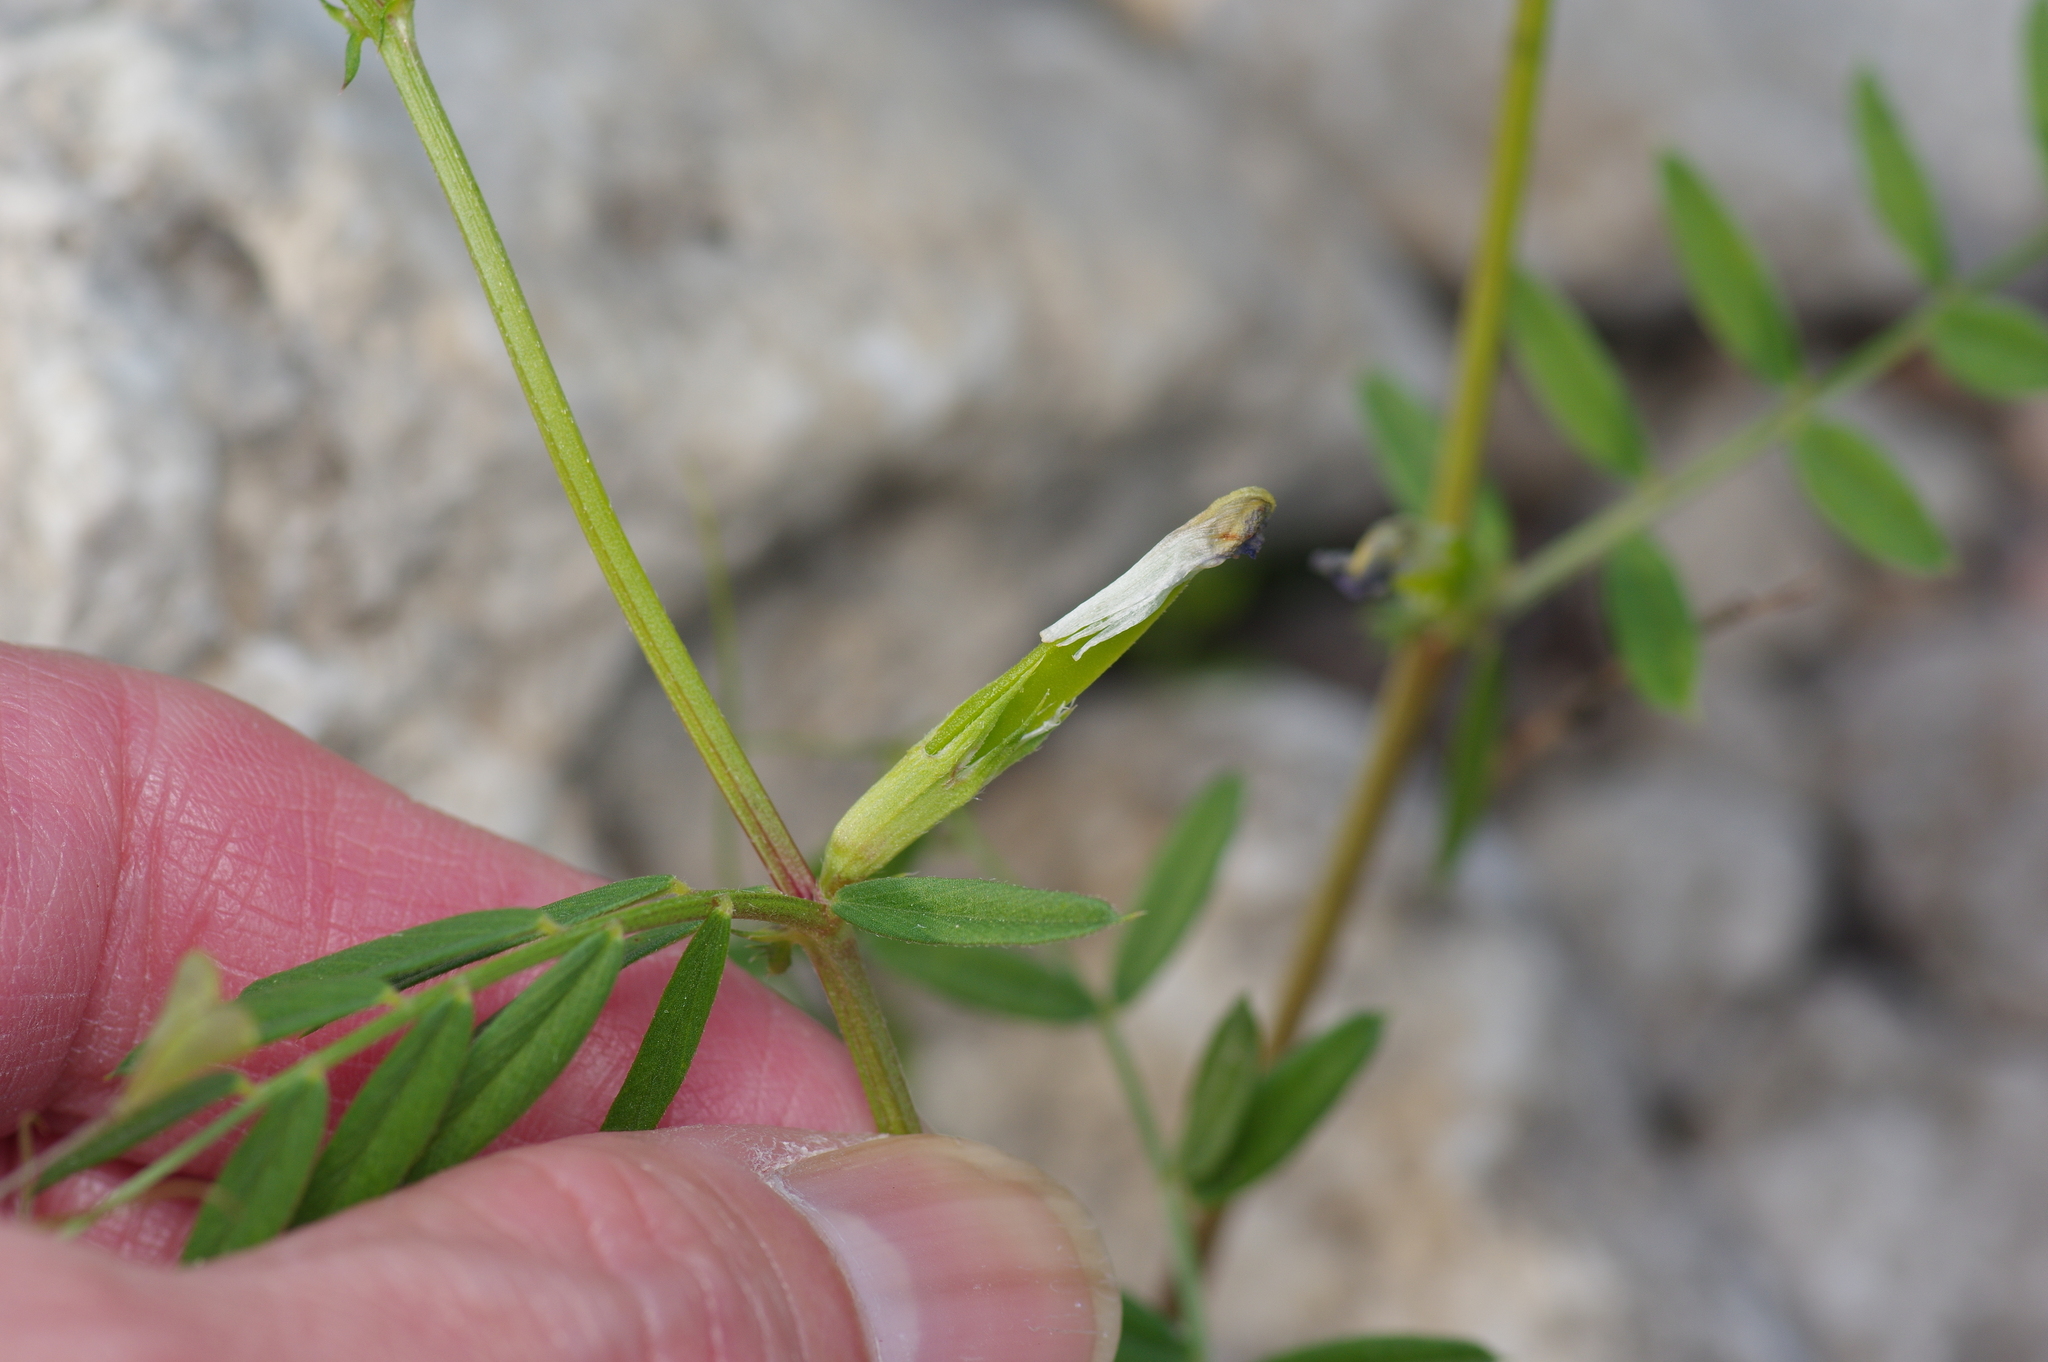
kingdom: Plantae
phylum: Tracheophyta
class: Magnoliopsida
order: Fabales
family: Fabaceae
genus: Vicia
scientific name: Vicia sativa
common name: Garden vetch
